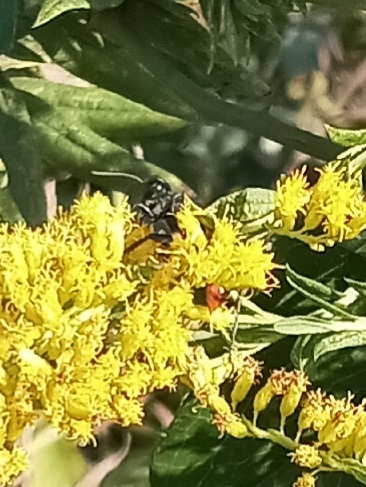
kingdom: Animalia
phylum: Arthropoda
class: Insecta
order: Hymenoptera
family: Scoliidae
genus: Scolia
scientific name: Scolia dubia
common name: Blue-winged scoliid wasp
